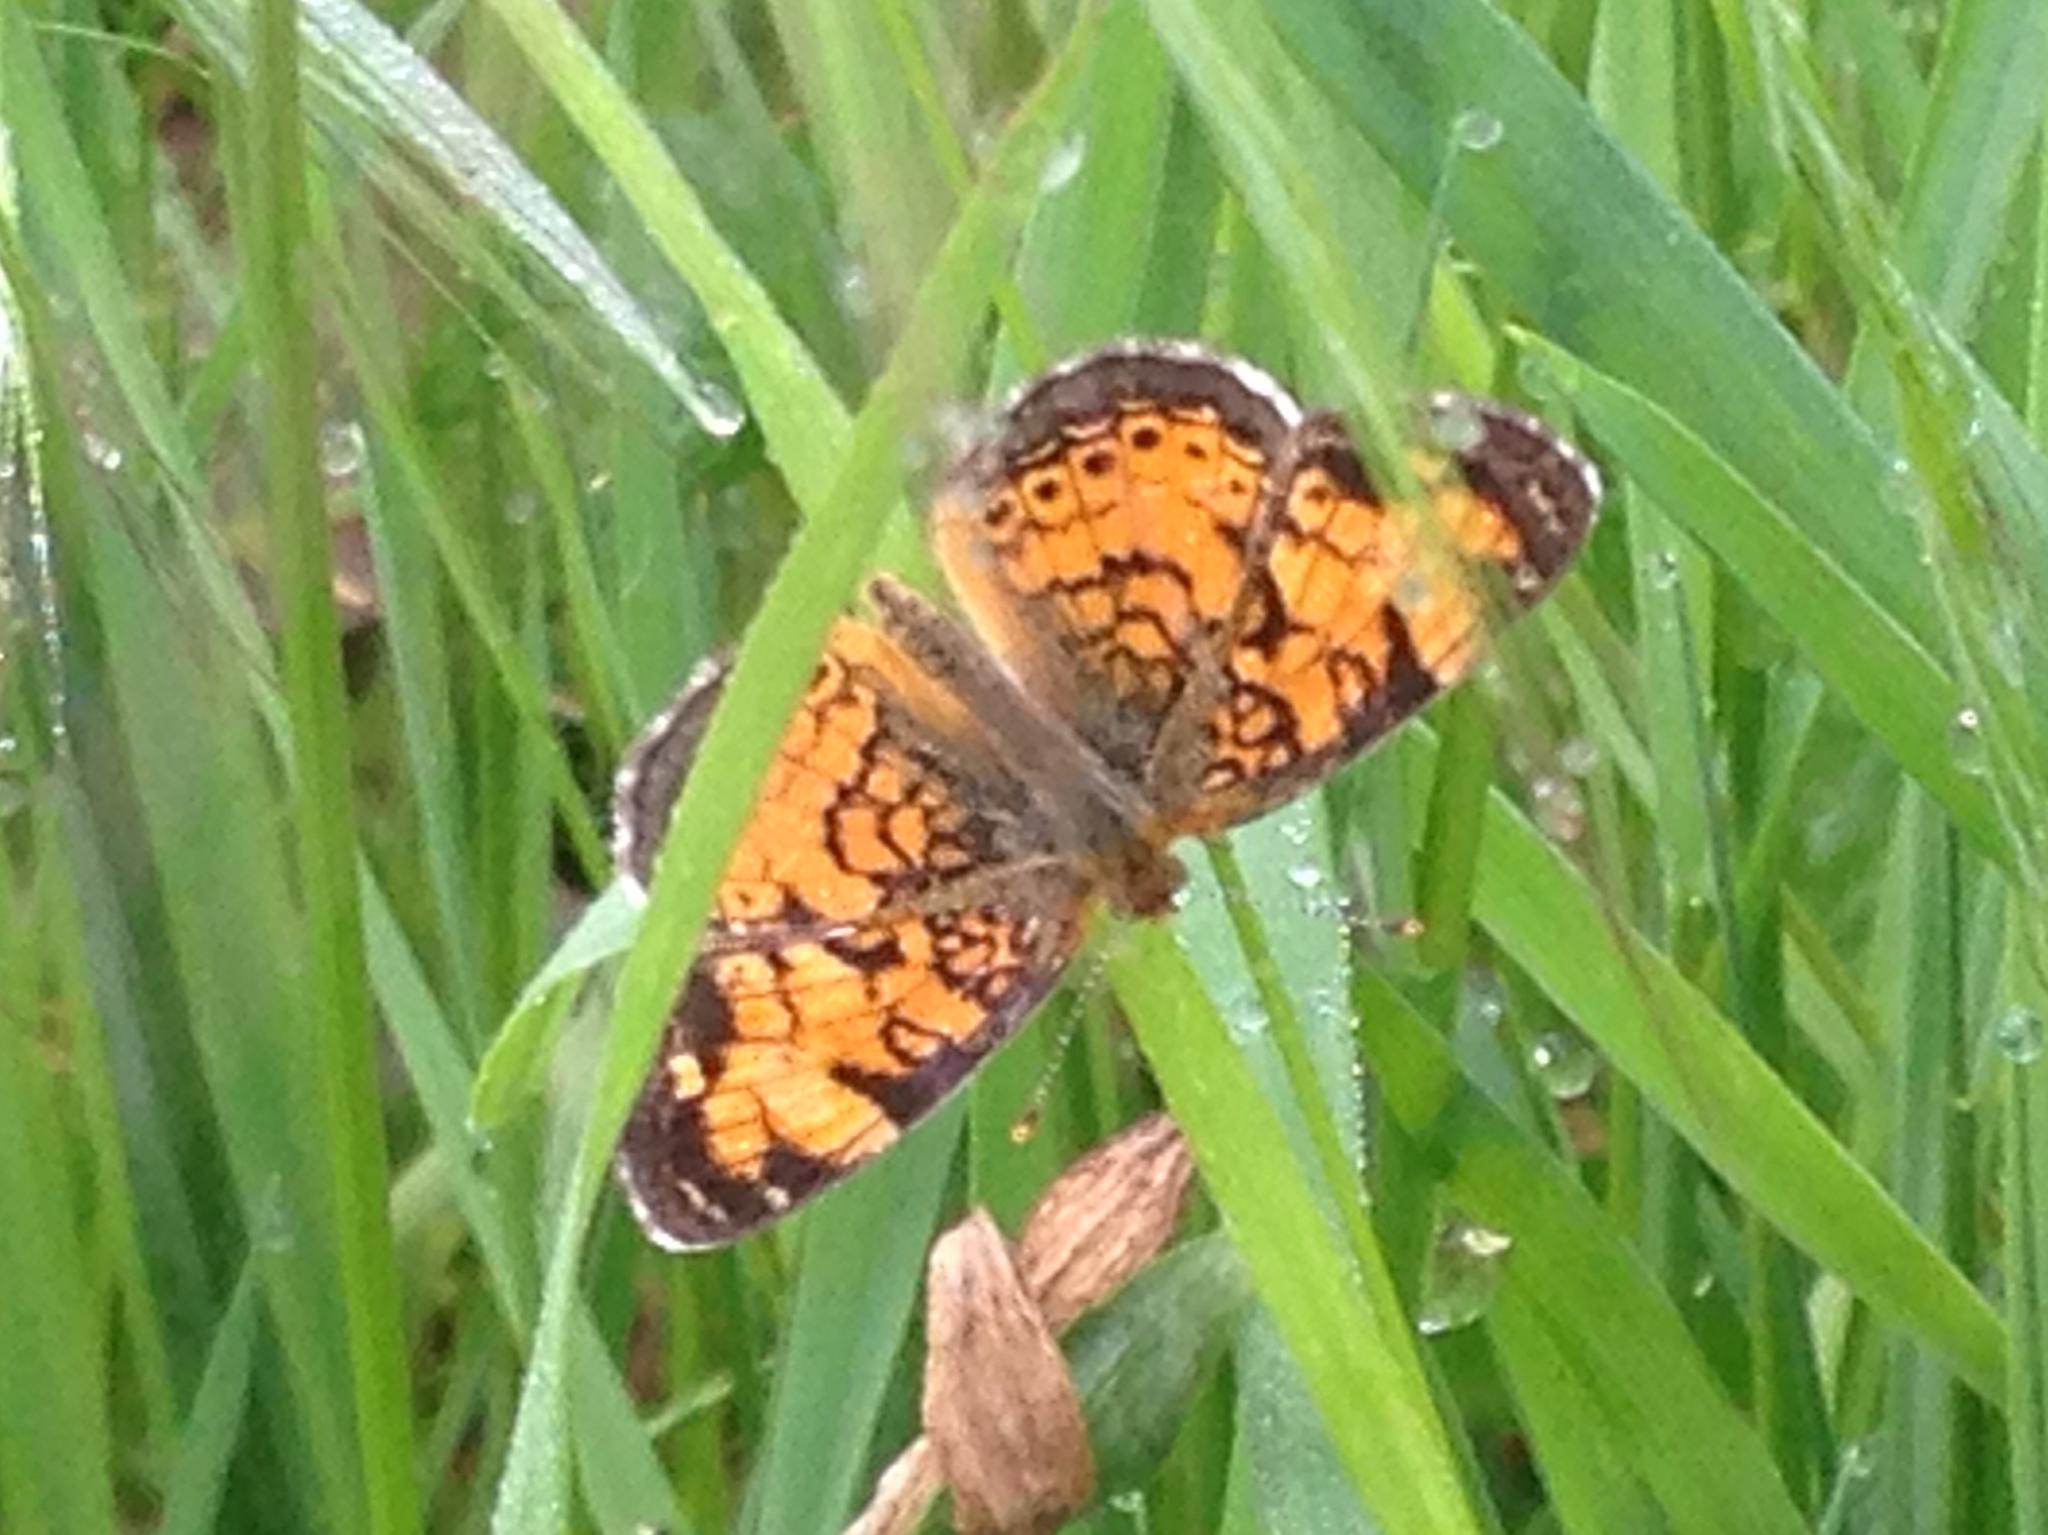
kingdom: Animalia
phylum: Arthropoda
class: Insecta
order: Lepidoptera
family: Nymphalidae
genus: Phyciodes
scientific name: Phyciodes tharos
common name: Pearl crescent
